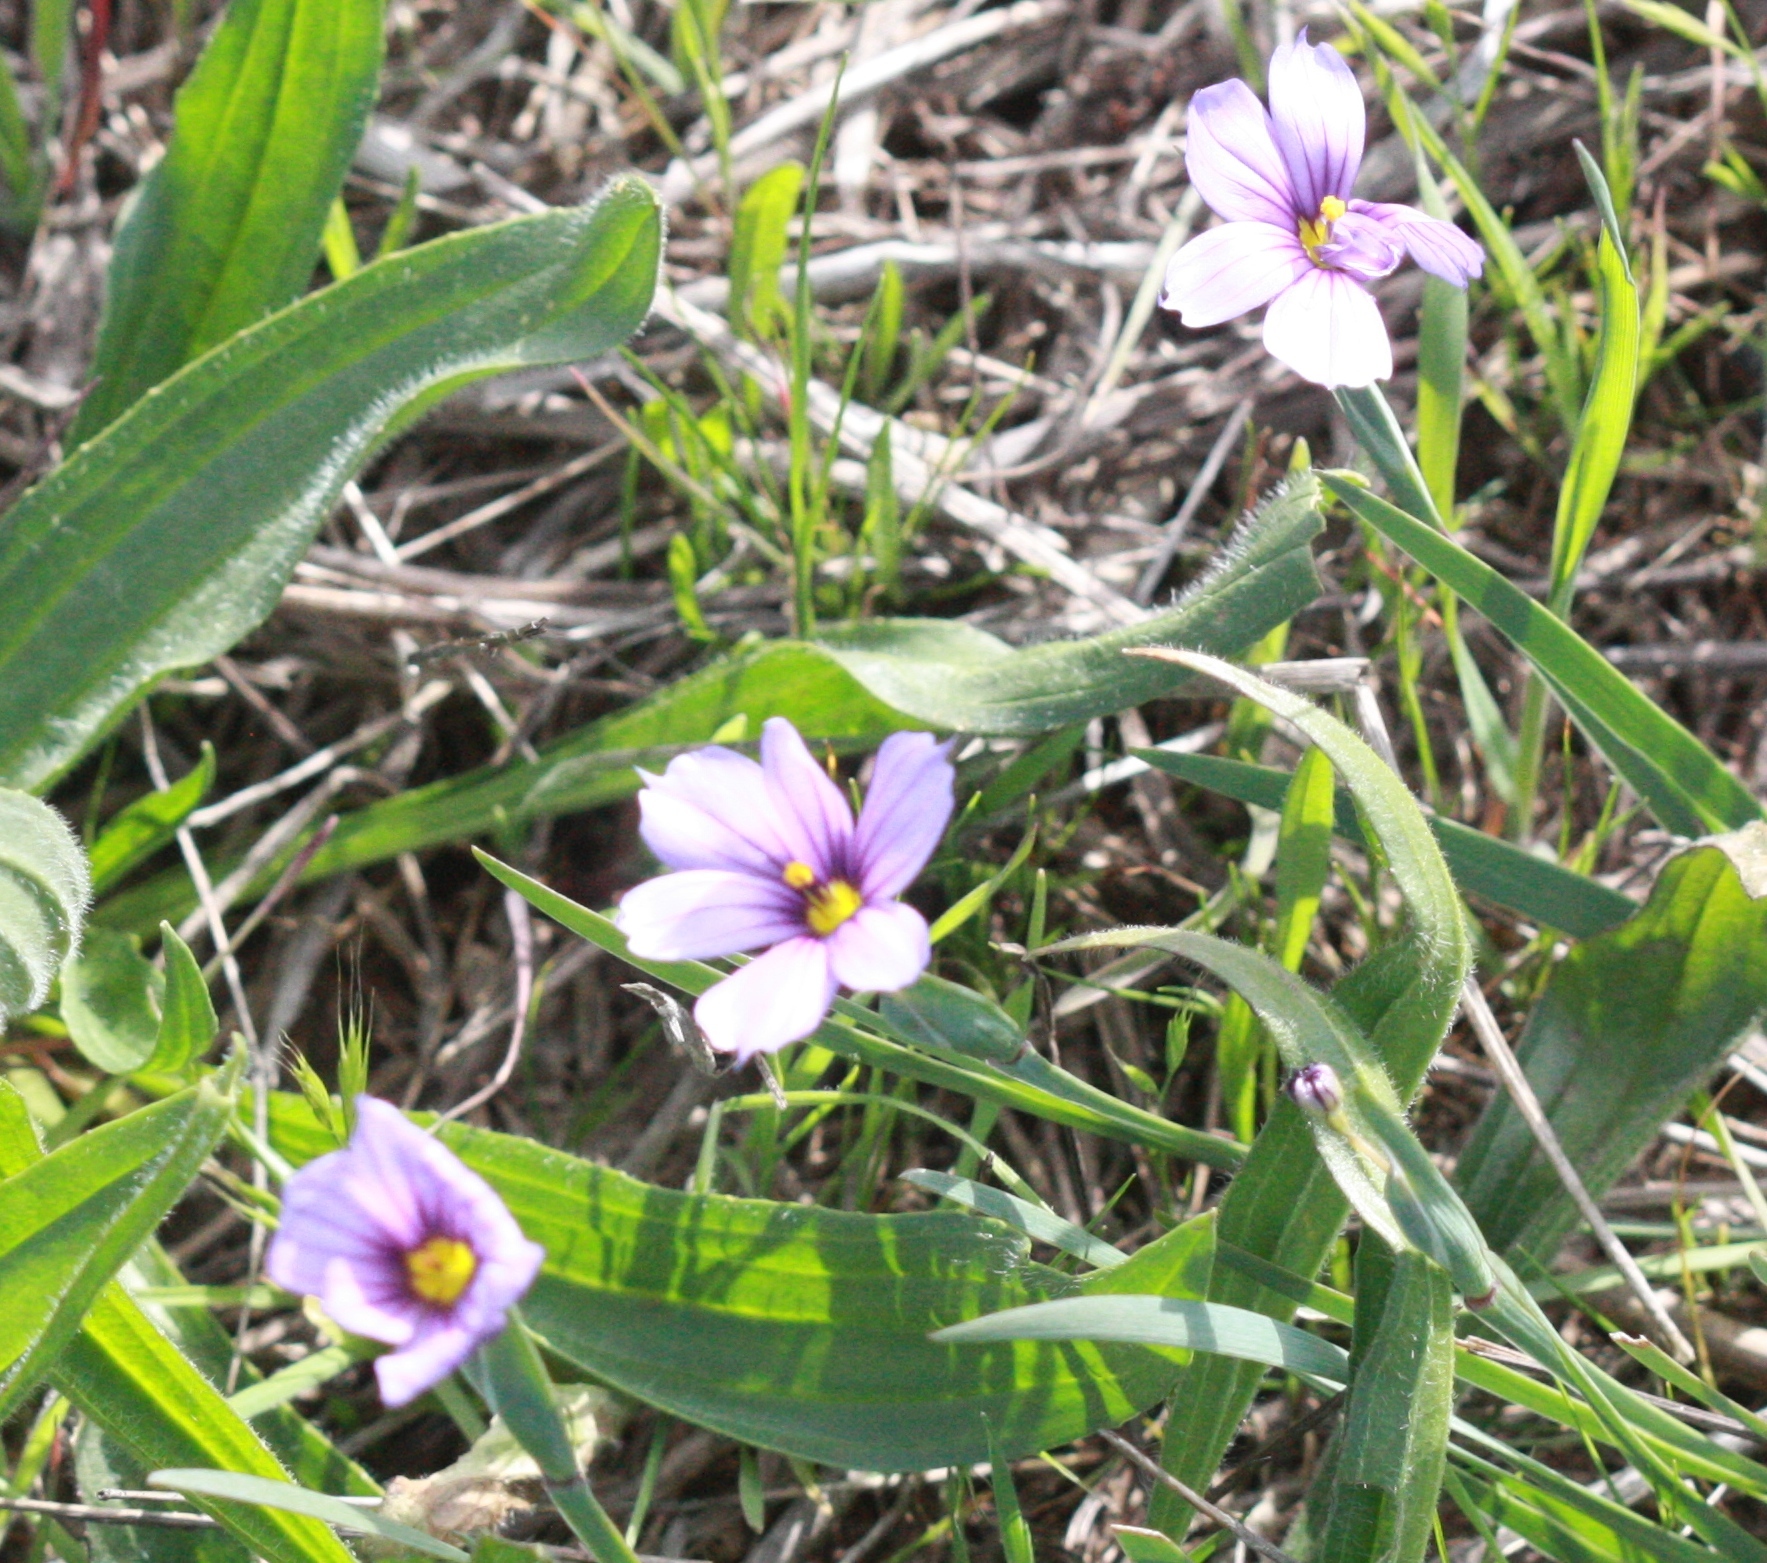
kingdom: Plantae
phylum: Tracheophyta
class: Liliopsida
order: Asparagales
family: Iridaceae
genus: Sisyrinchium
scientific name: Sisyrinchium bellum
